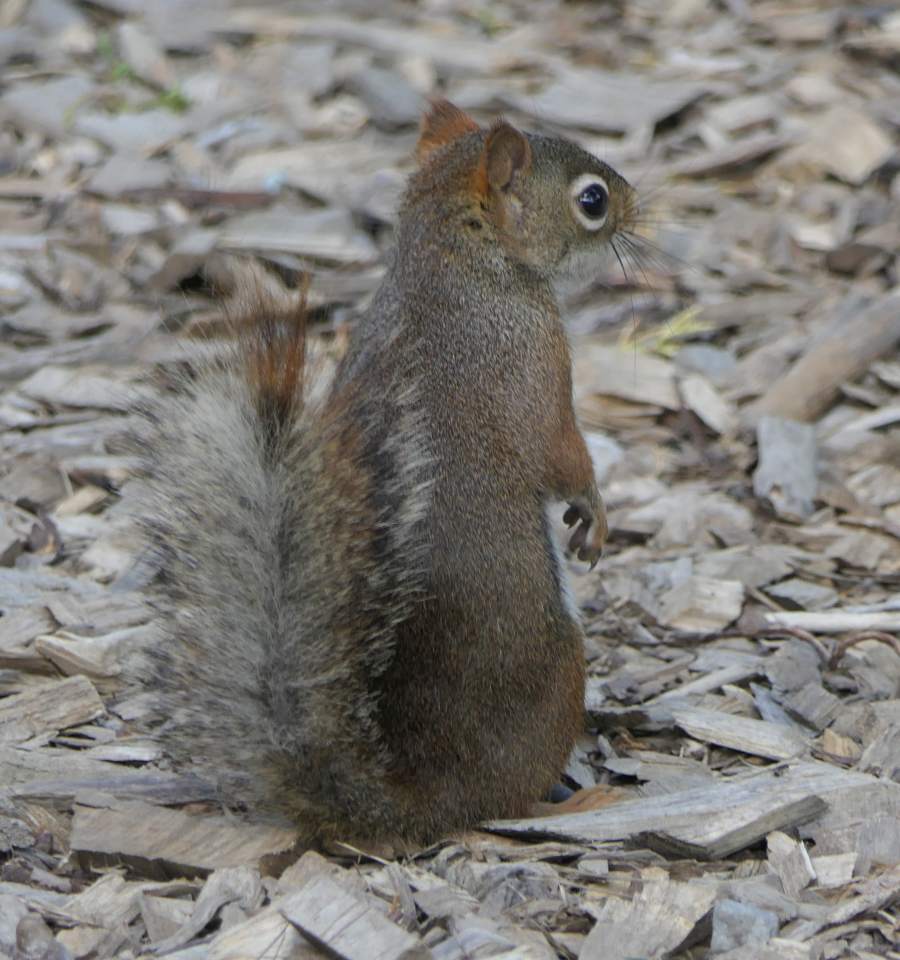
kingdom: Animalia
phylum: Chordata
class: Mammalia
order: Rodentia
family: Sciuridae
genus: Tamiasciurus
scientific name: Tamiasciurus hudsonicus
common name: Red squirrel
